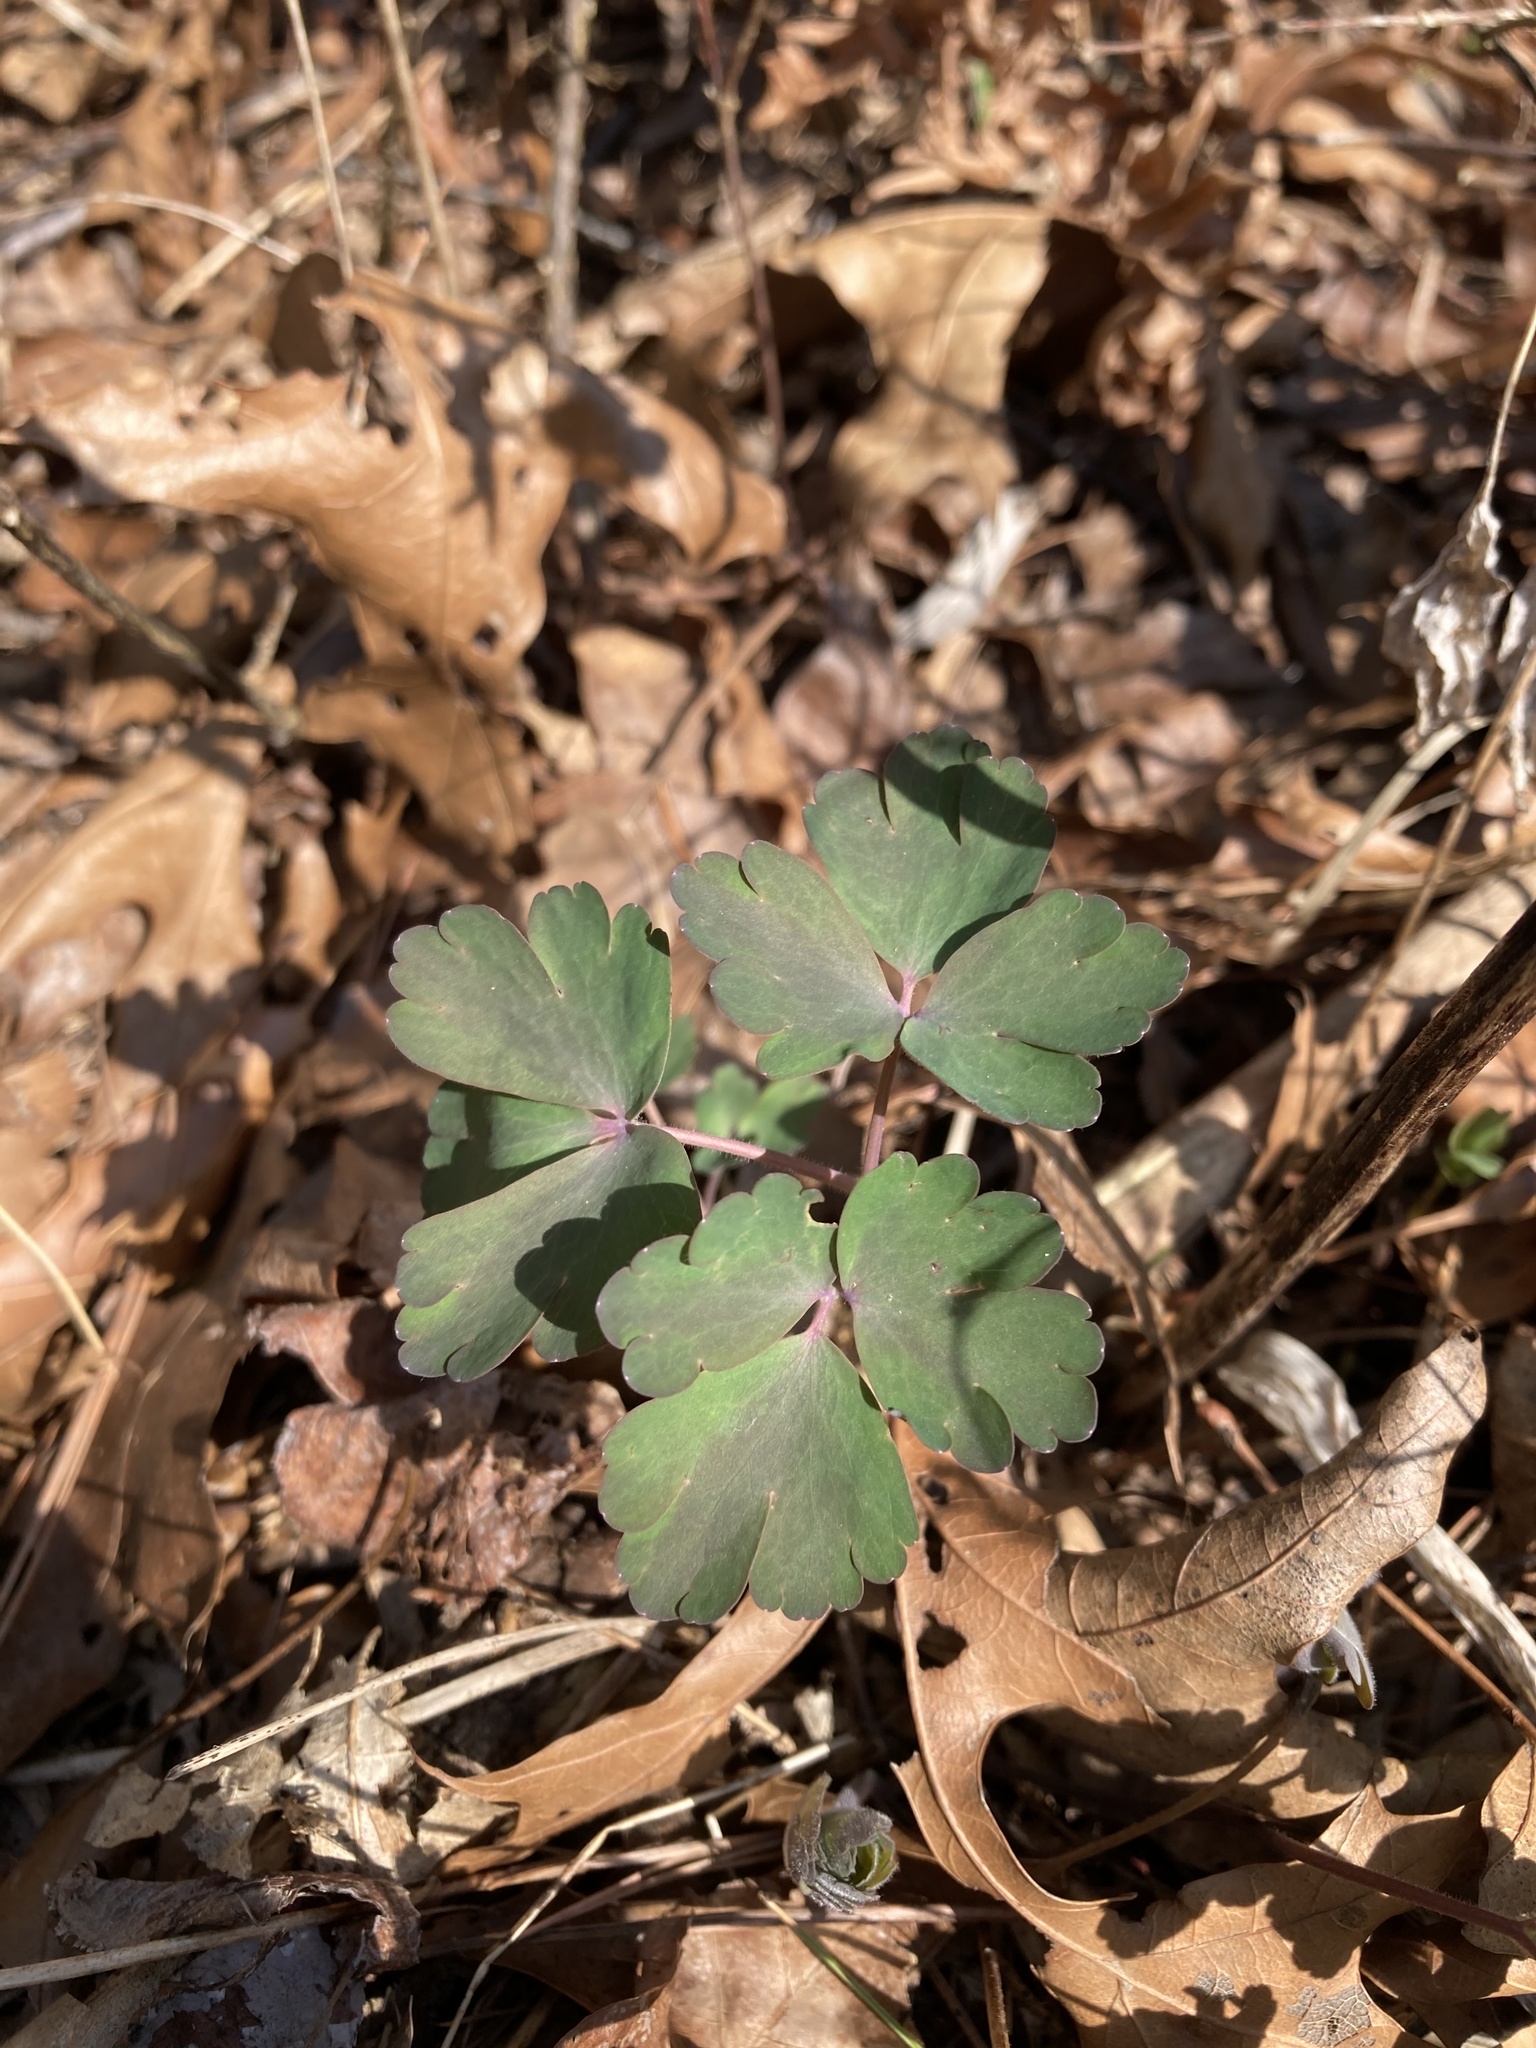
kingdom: Plantae
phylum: Tracheophyta
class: Magnoliopsida
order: Ranunculales
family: Ranunculaceae
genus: Aquilegia
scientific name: Aquilegia canadensis
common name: American columbine
